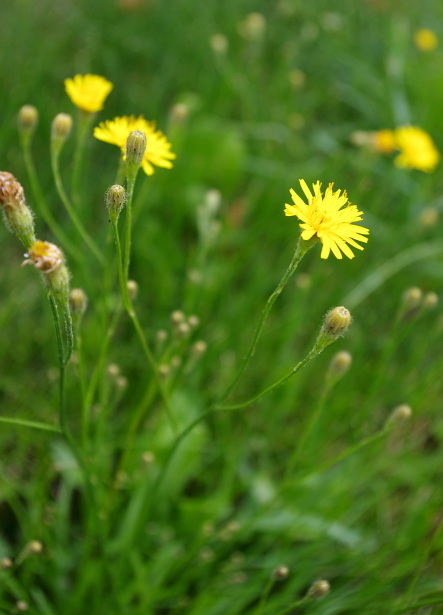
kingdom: Plantae
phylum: Tracheophyta
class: Magnoliopsida
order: Asterales
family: Asteraceae
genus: Scorzoneroides
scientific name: Scorzoneroides autumnalis
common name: Autumn hawkbit
